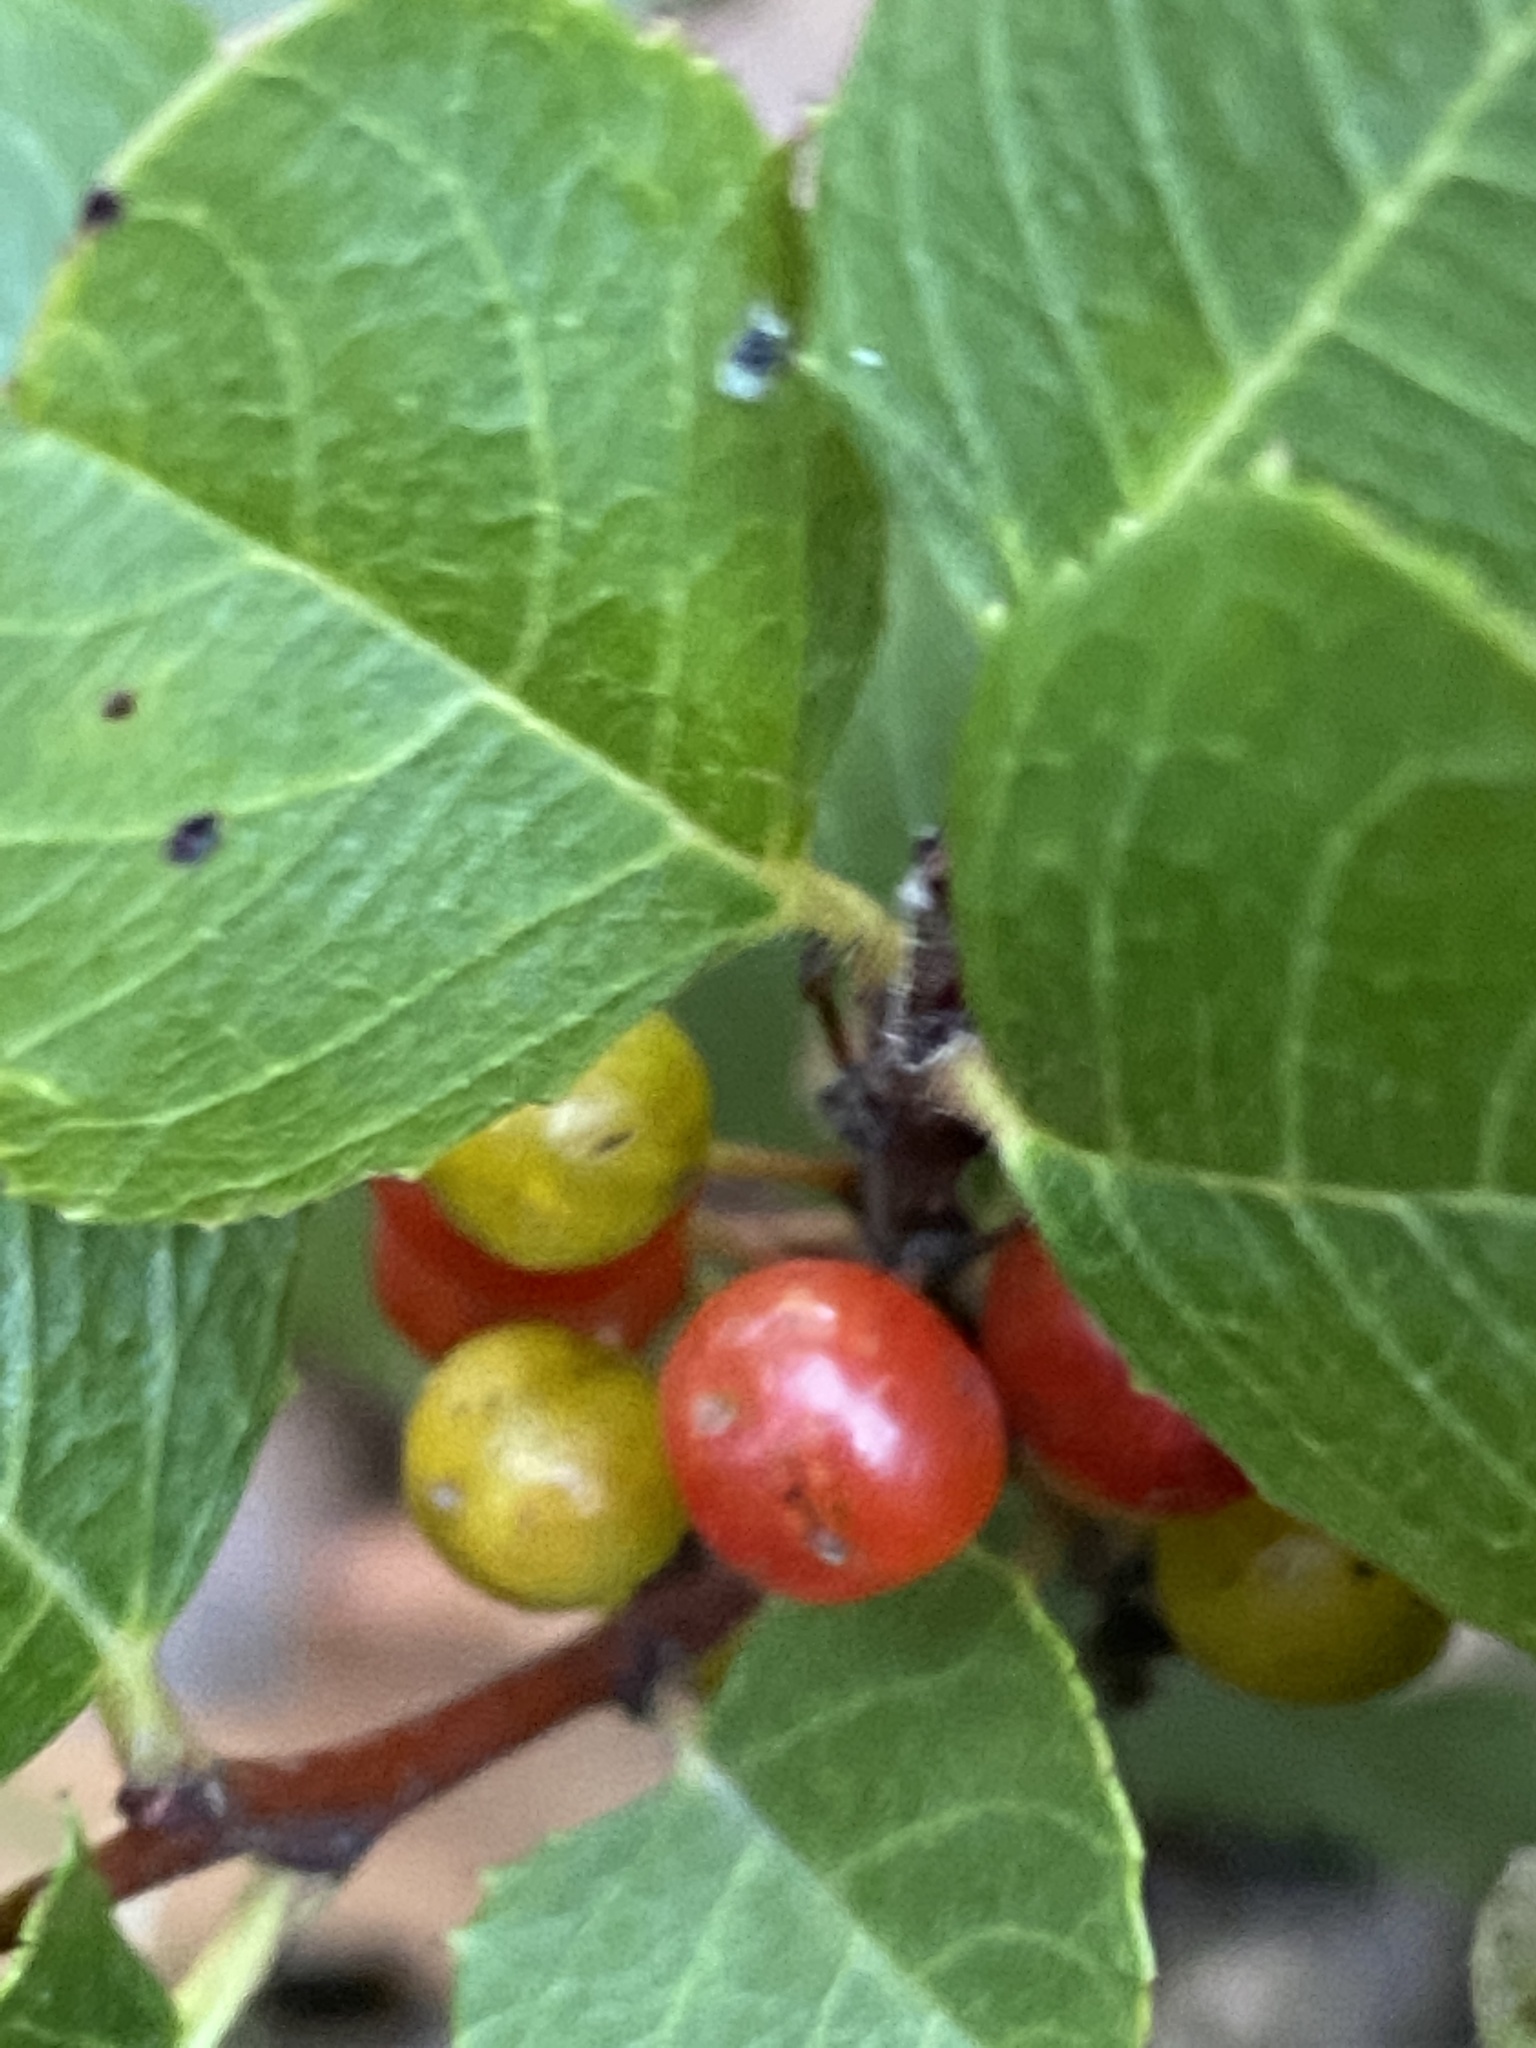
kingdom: Plantae
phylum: Tracheophyta
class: Magnoliopsida
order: Rosales
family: Rhamnaceae
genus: Endotropis
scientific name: Endotropis crocea
